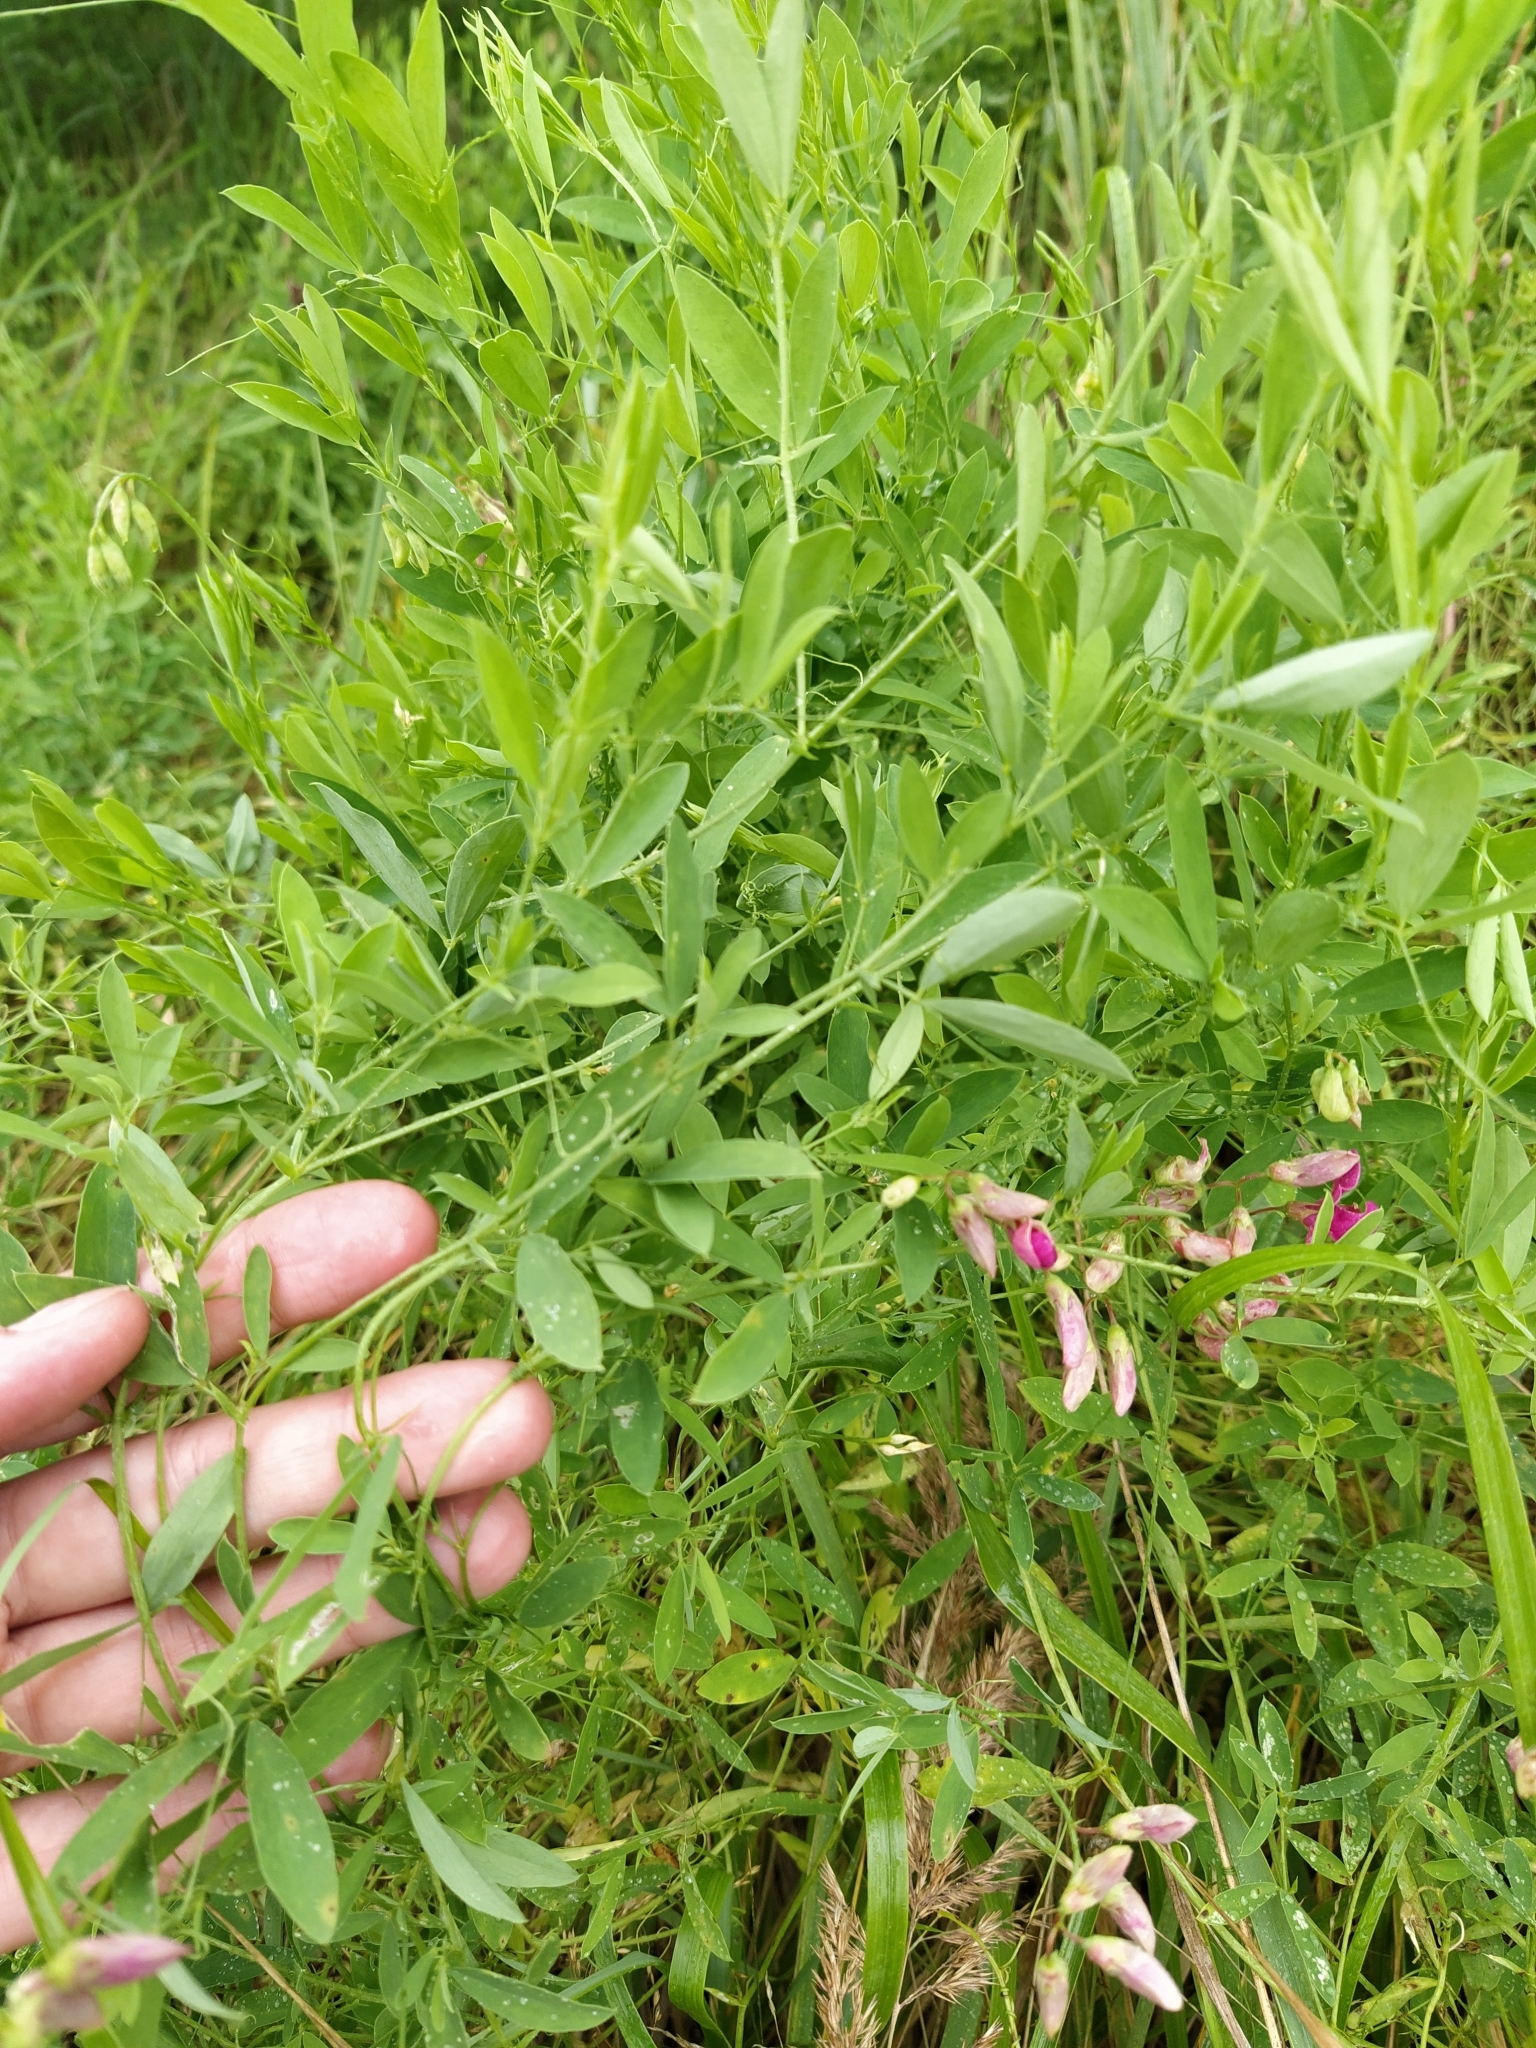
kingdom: Plantae
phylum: Tracheophyta
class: Magnoliopsida
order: Fabales
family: Fabaceae
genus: Lathyrus
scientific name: Lathyrus tuberosus
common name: Tuberous pea
